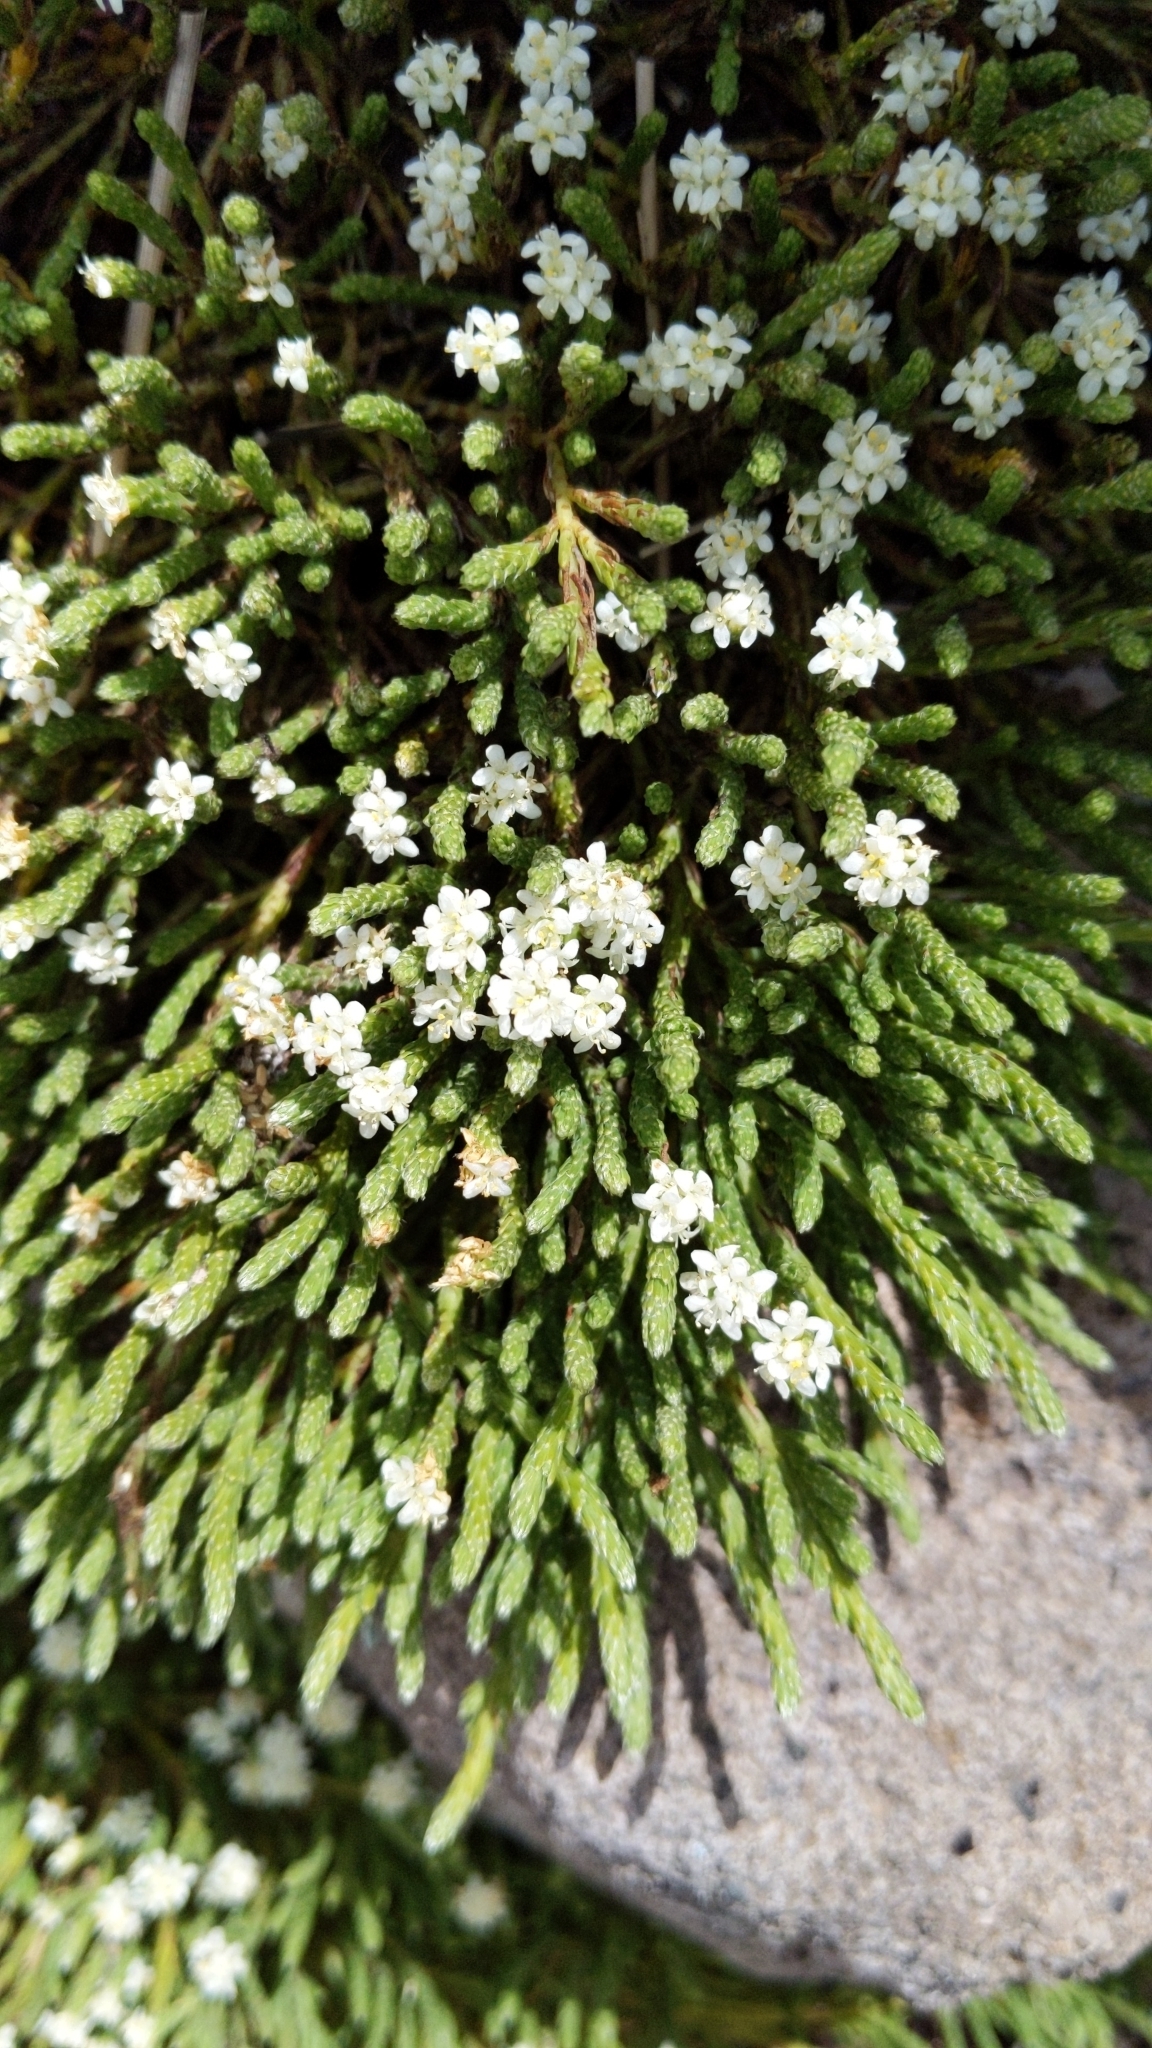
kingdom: Plantae
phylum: Tracheophyta
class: Magnoliopsida
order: Malvales
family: Thymelaeaceae
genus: Kelleria
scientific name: Kelleria dieffenbachii
